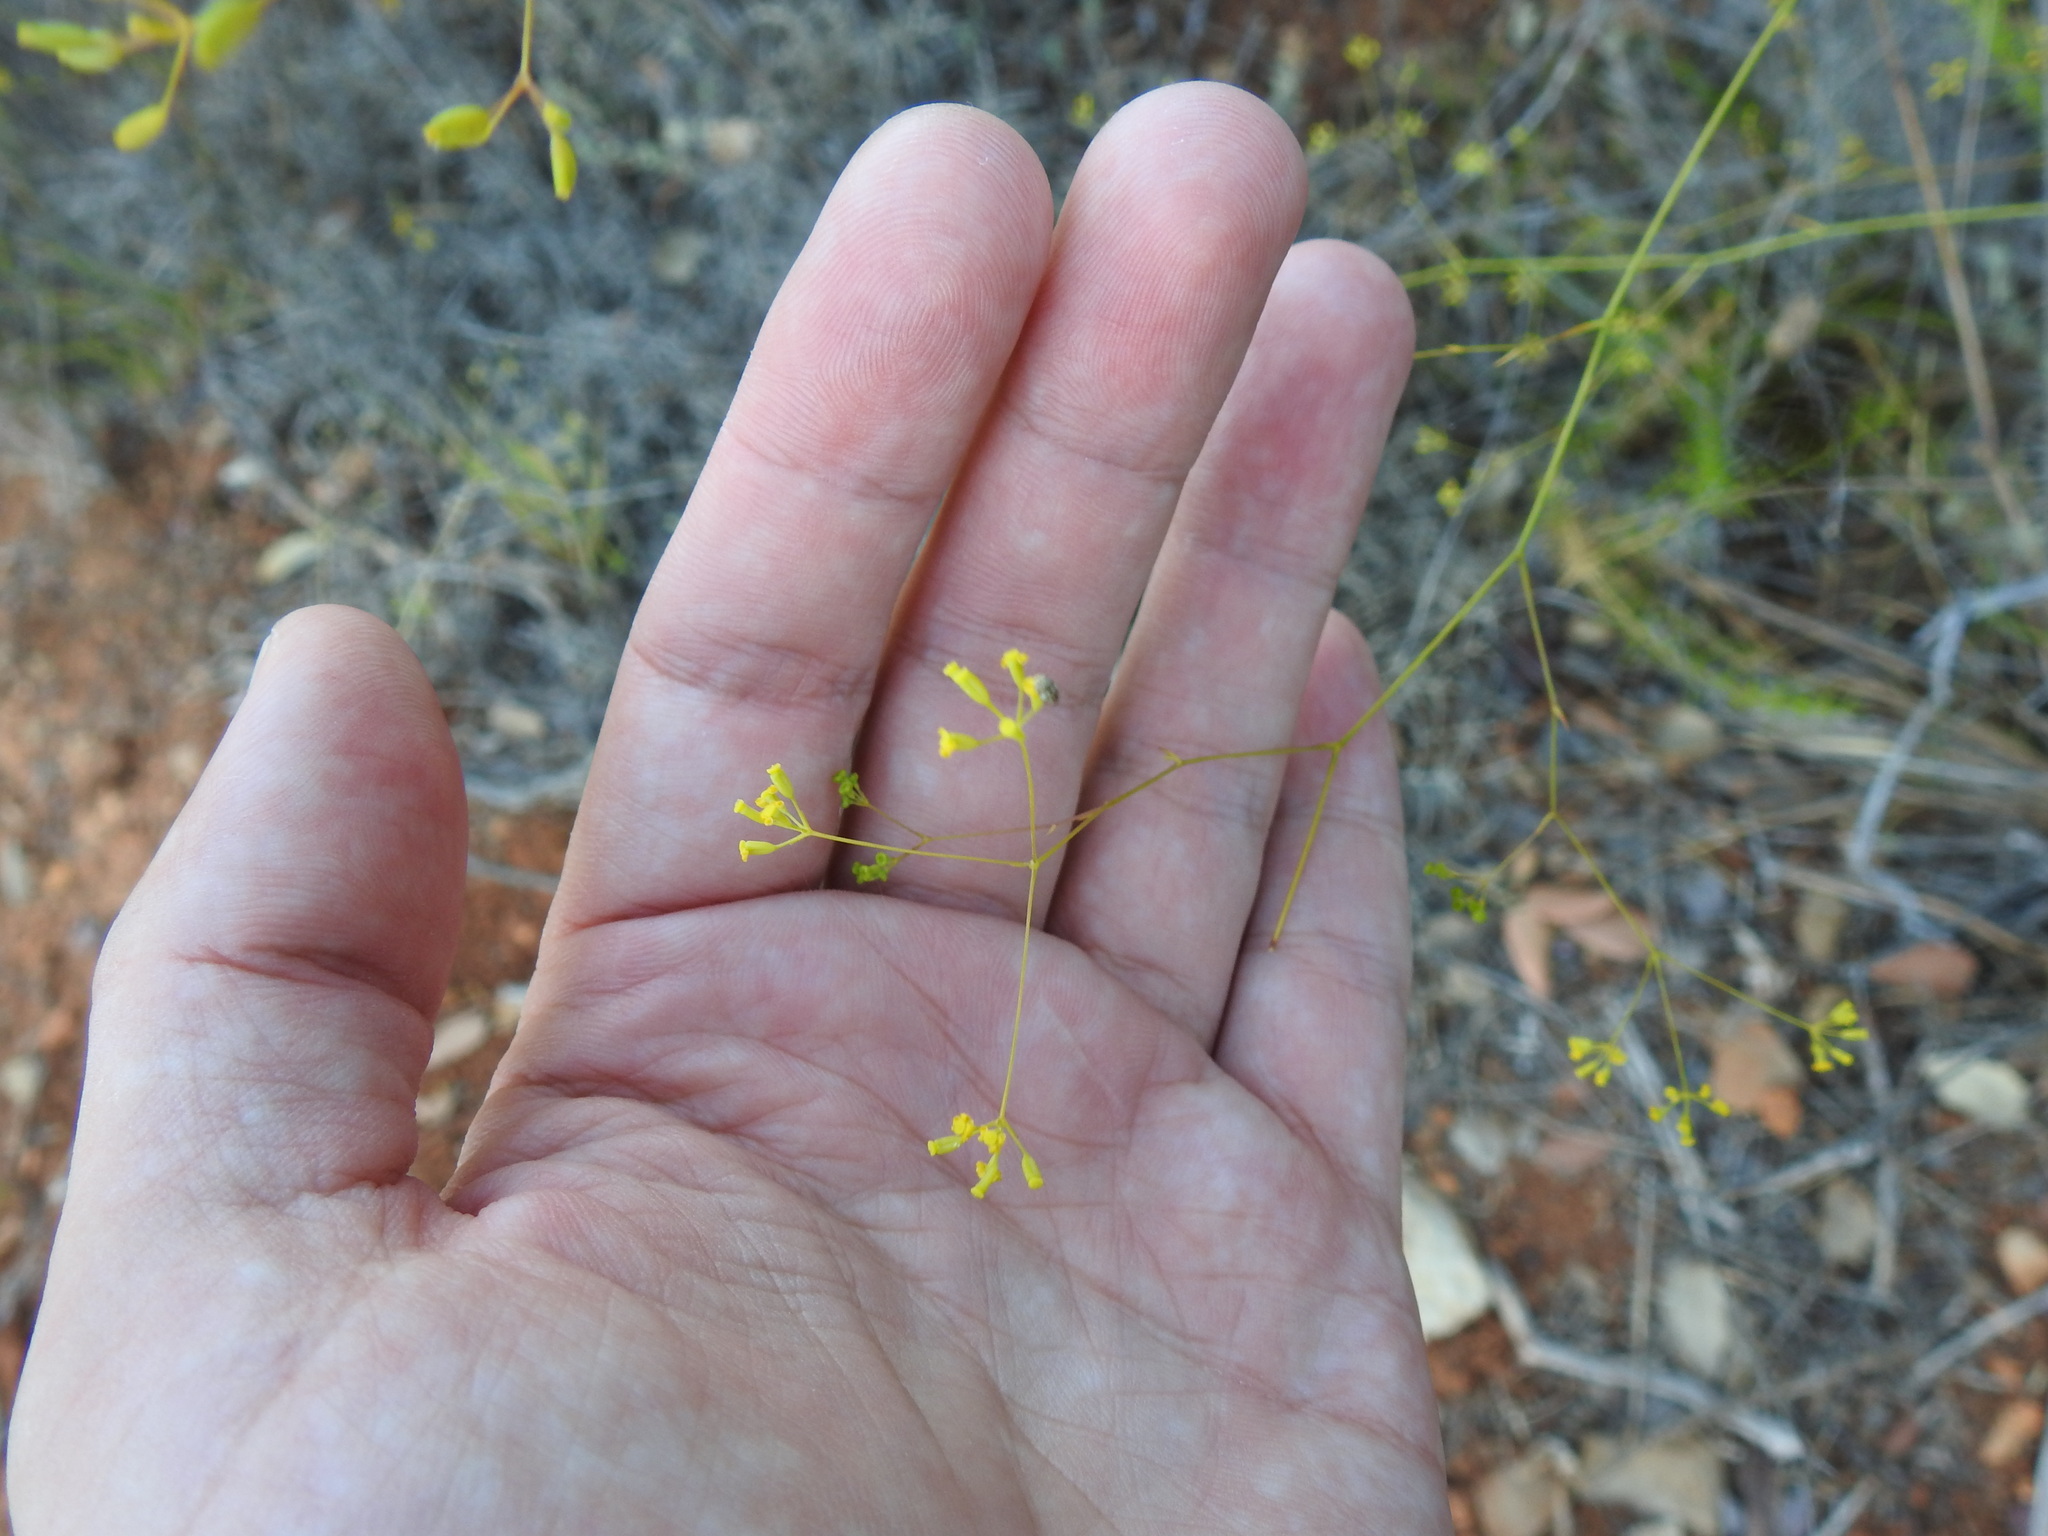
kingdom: Plantae
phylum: Tracheophyta
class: Magnoliopsida
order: Apiales
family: Apiaceae
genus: Bupleurum
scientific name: Bupleurum rigidum
